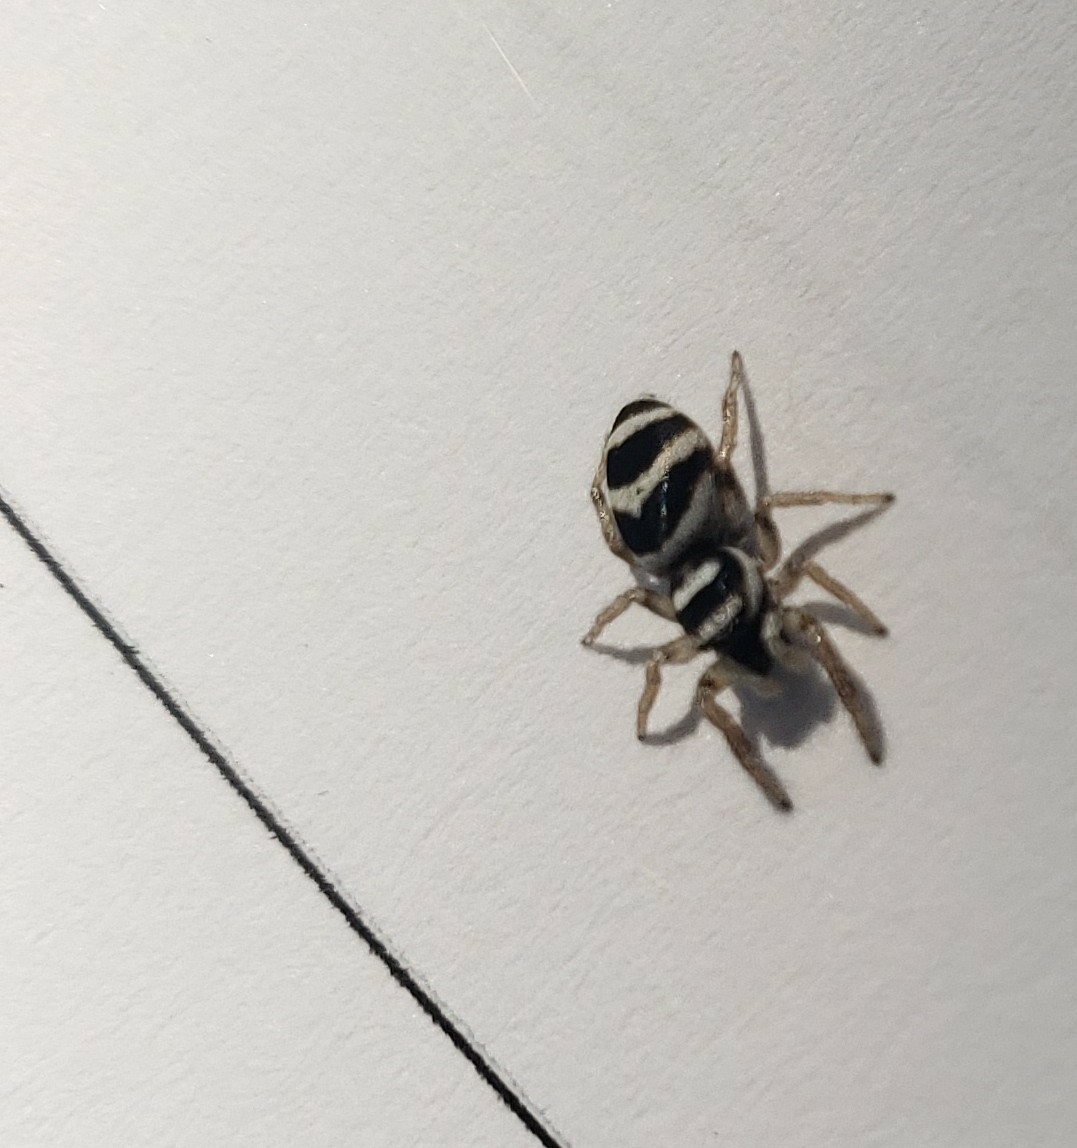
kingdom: Animalia
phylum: Arthropoda
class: Arachnida
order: Araneae
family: Salticidae
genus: Salticus
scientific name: Salticus austinensis
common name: Jumping spiders
